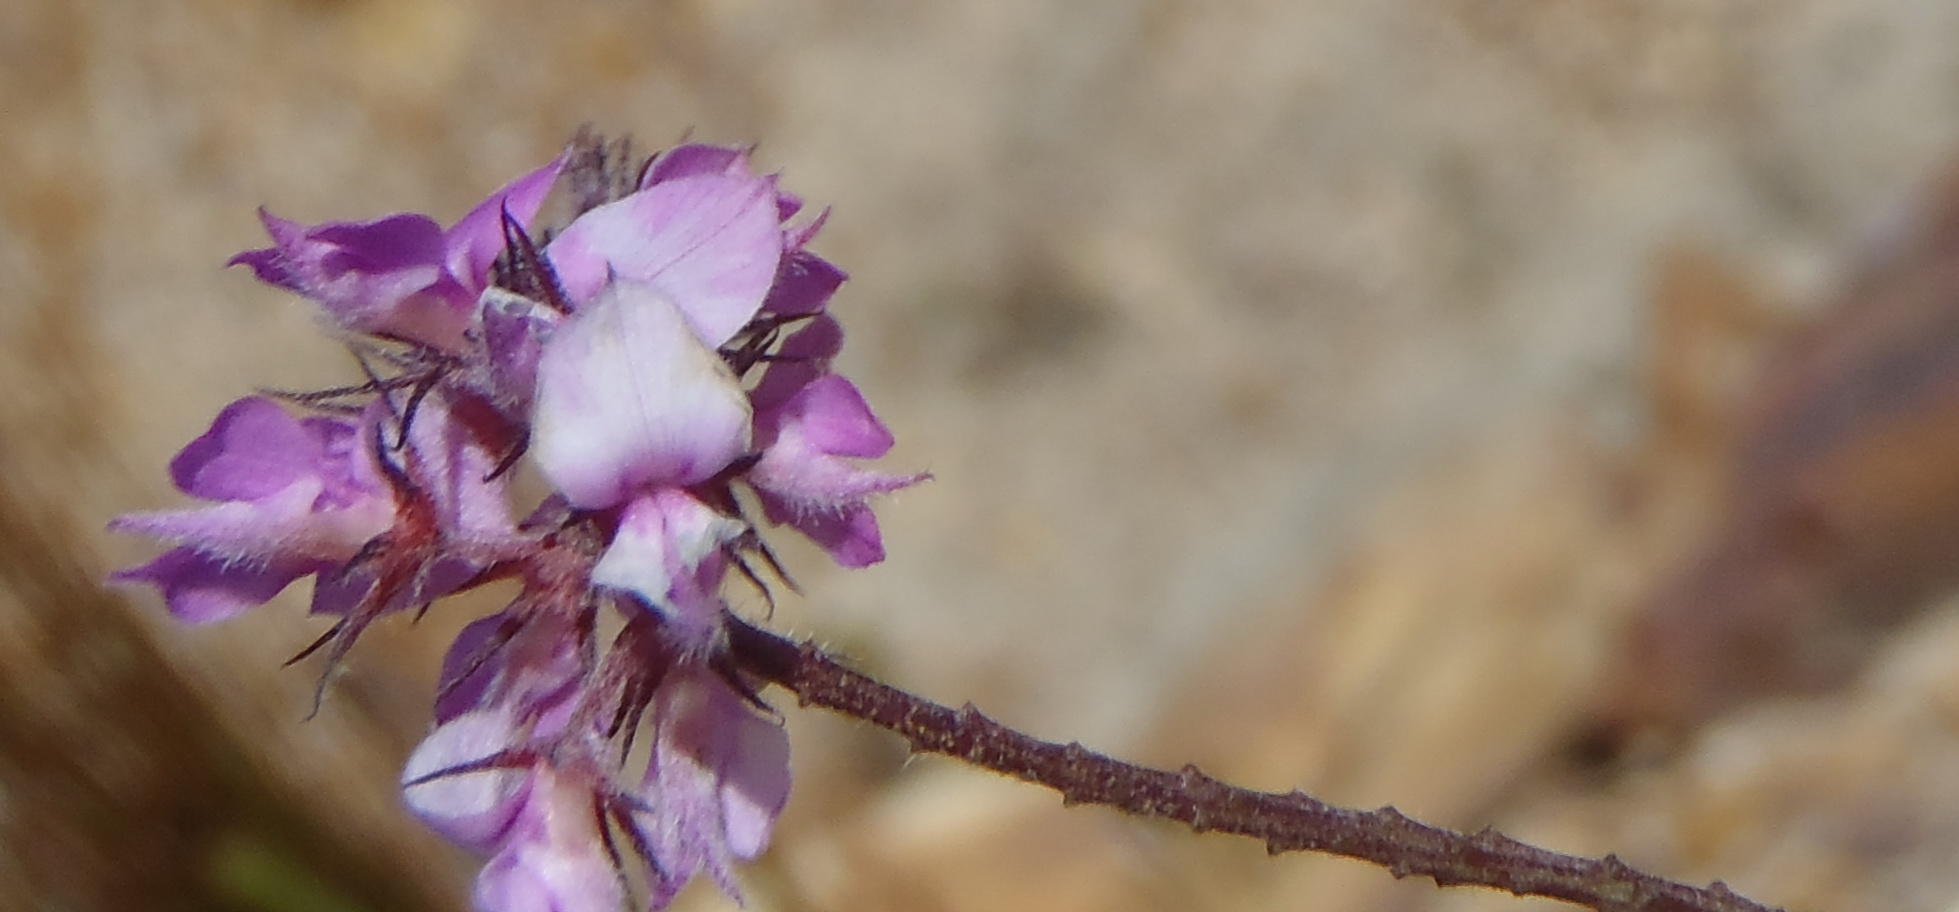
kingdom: Plantae
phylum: Tracheophyta
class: Magnoliopsida
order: Fabales
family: Fabaceae
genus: Indigofera
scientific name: Indigofera alopecuroides
